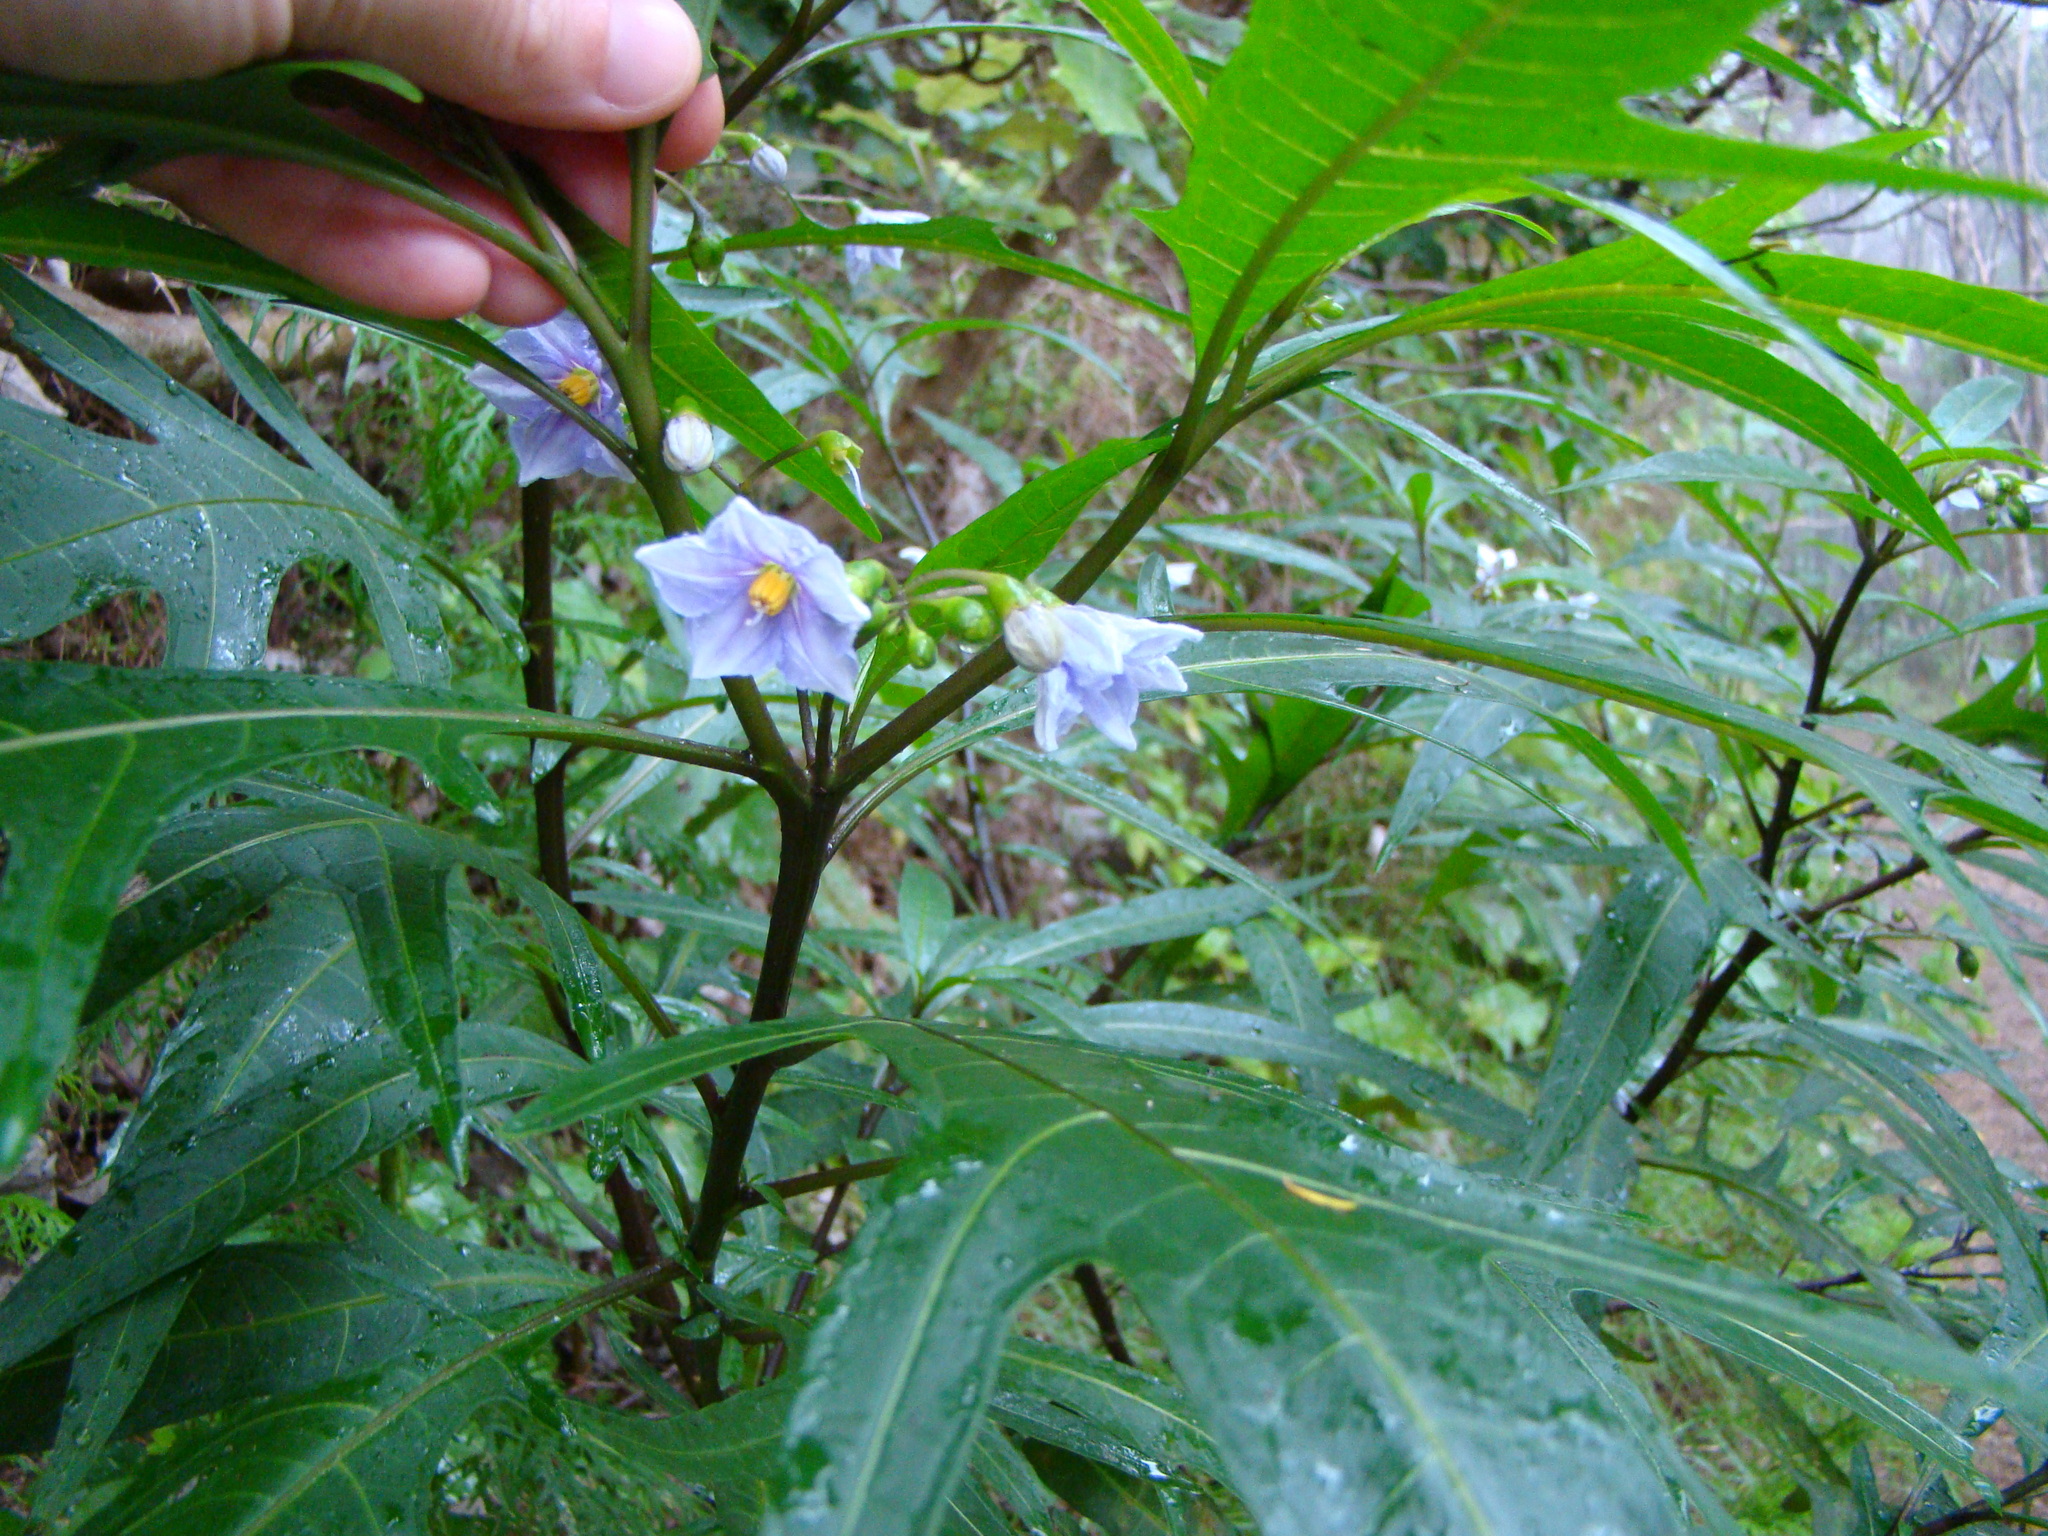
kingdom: Plantae
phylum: Tracheophyta
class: Magnoliopsida
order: Solanales
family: Solanaceae
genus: Solanum
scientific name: Solanum aviculare
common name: New zealand nightshade
